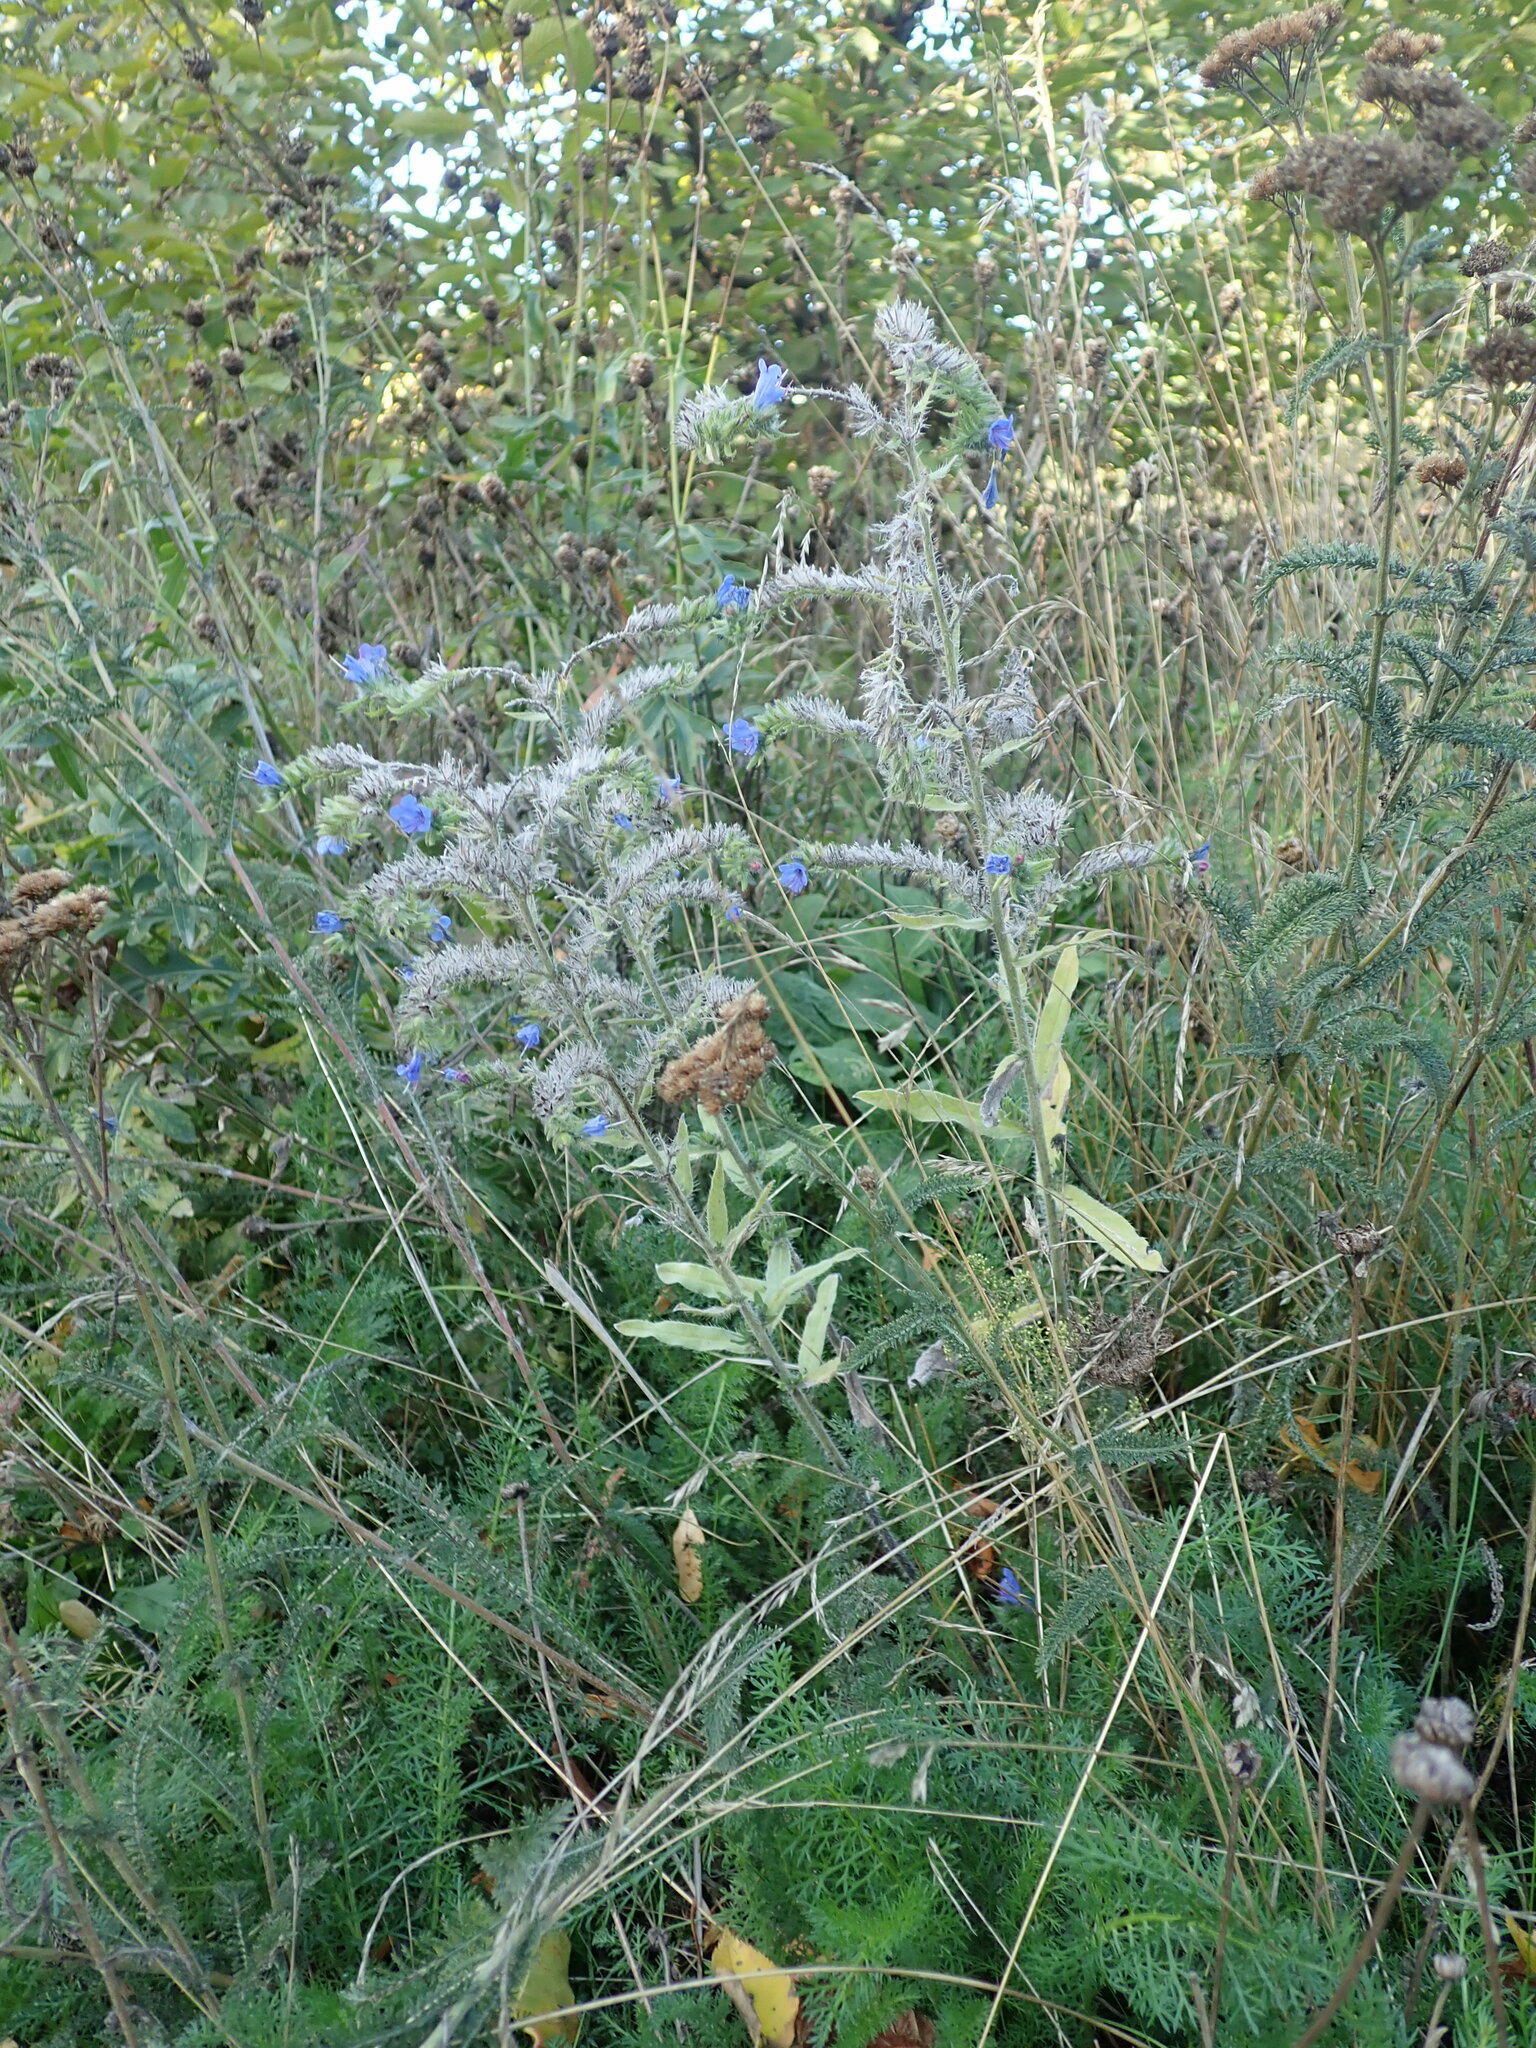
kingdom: Plantae
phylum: Tracheophyta
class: Magnoliopsida
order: Boraginales
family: Boraginaceae
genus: Echium
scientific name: Echium vulgare
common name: Common viper's bugloss
